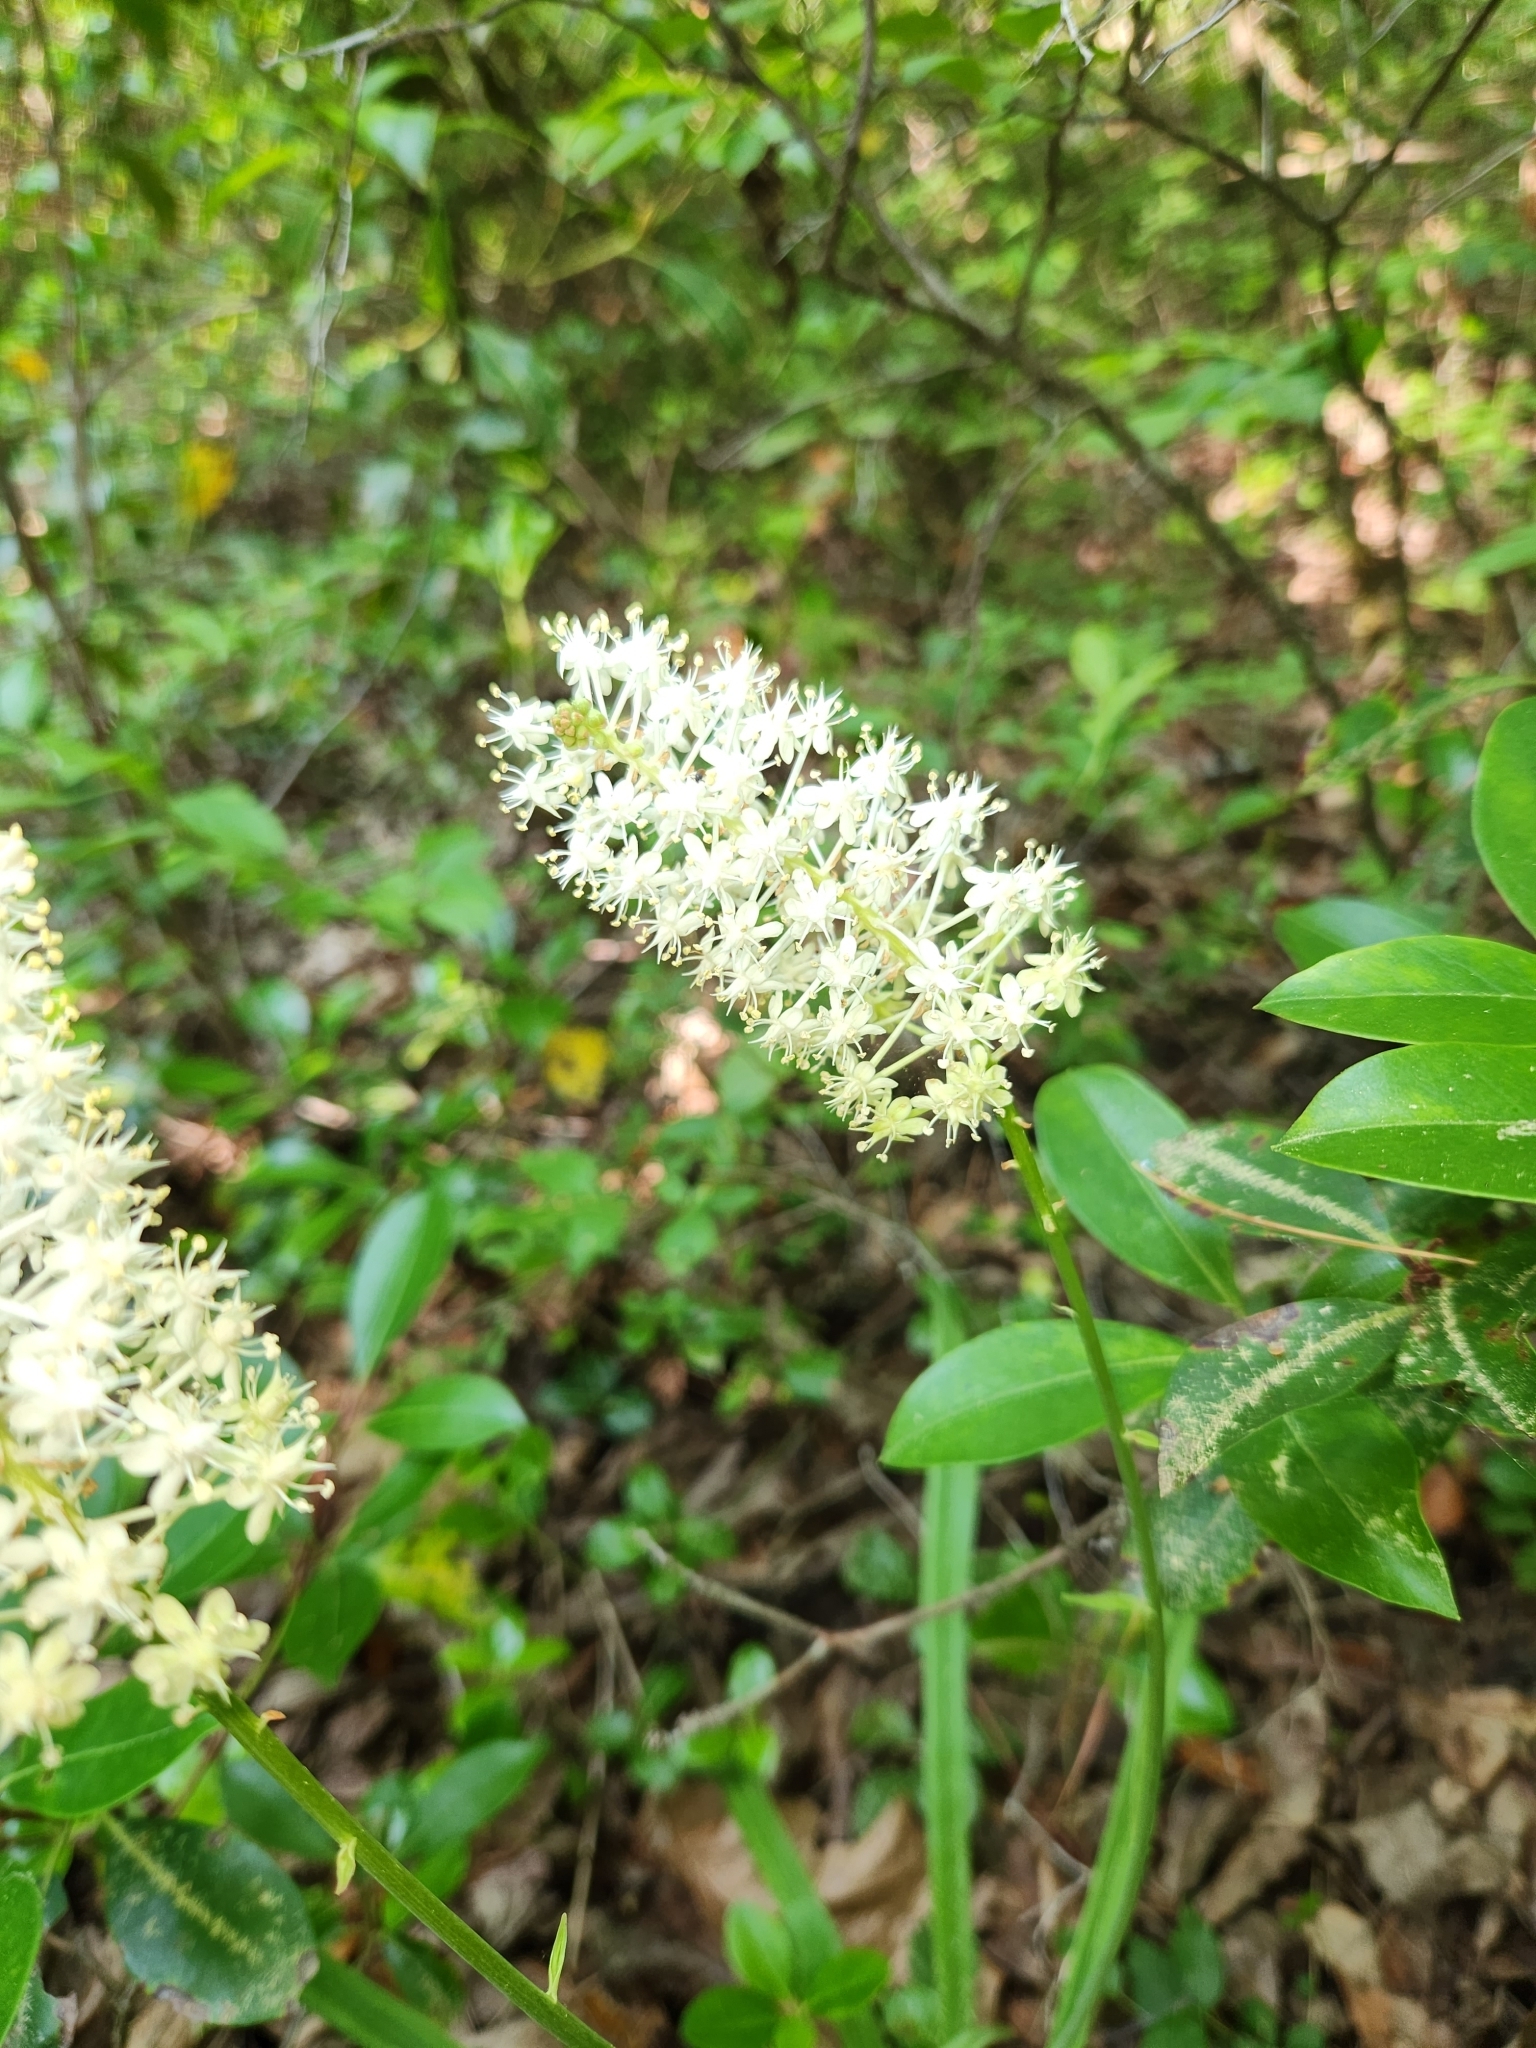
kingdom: Plantae
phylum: Tracheophyta
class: Liliopsida
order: Liliales
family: Melanthiaceae
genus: Amianthium
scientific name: Amianthium muscitoxicum
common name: Fly-poison
